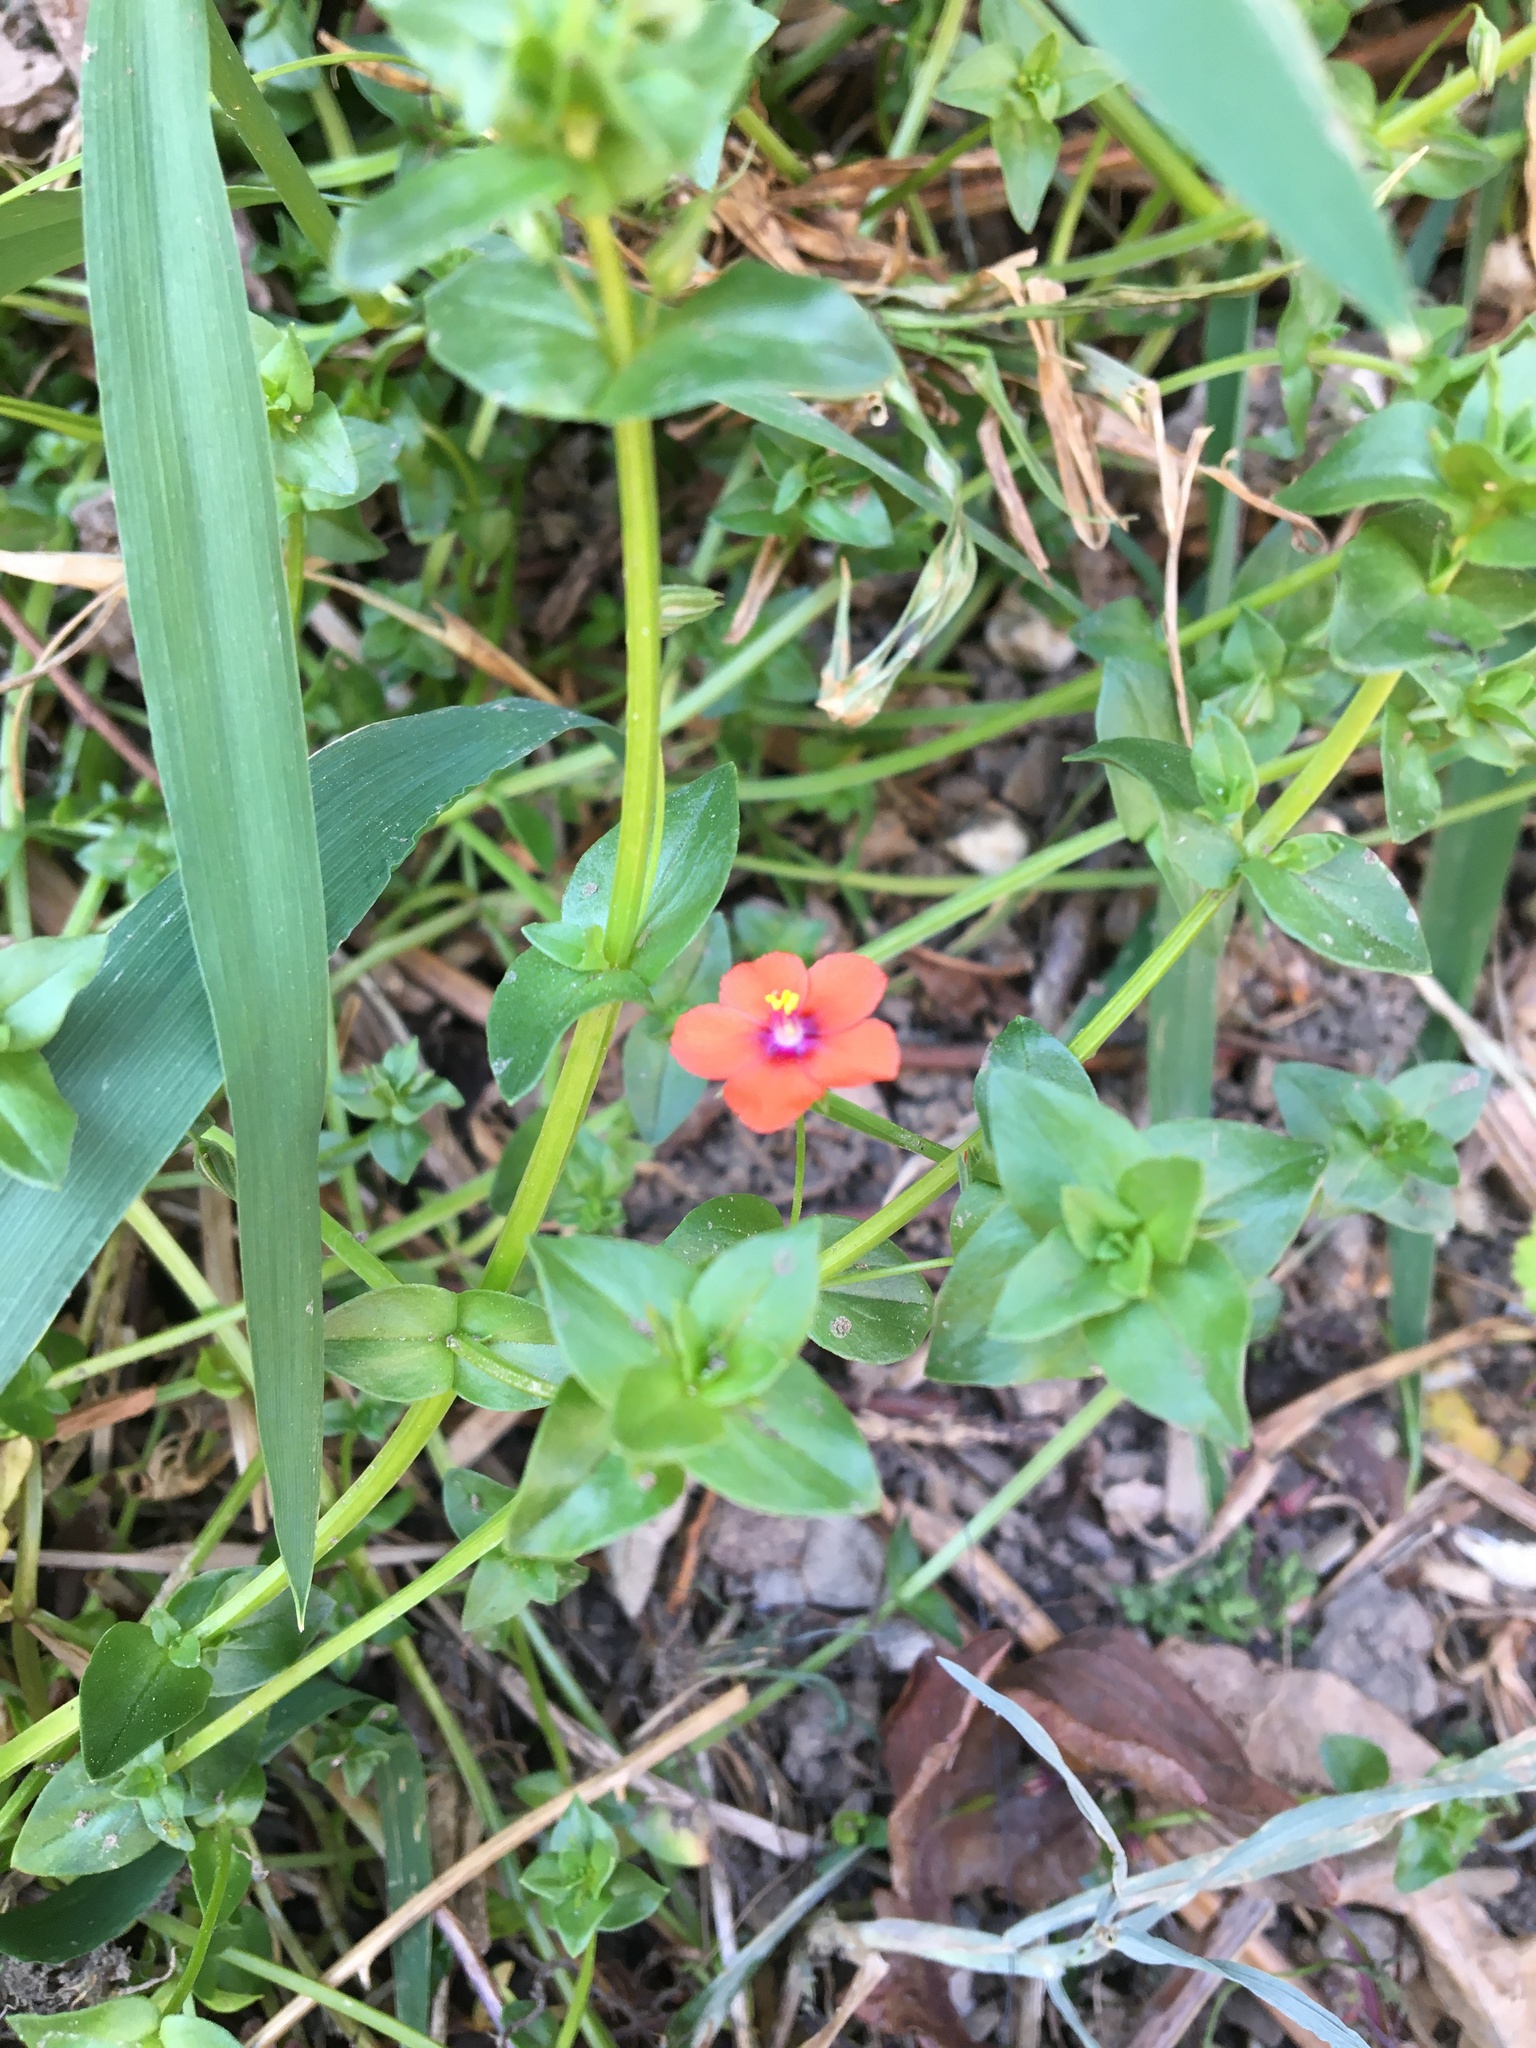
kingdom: Plantae
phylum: Tracheophyta
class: Magnoliopsida
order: Ericales
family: Primulaceae
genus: Lysimachia
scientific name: Lysimachia arvensis
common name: Scarlet pimpernel
